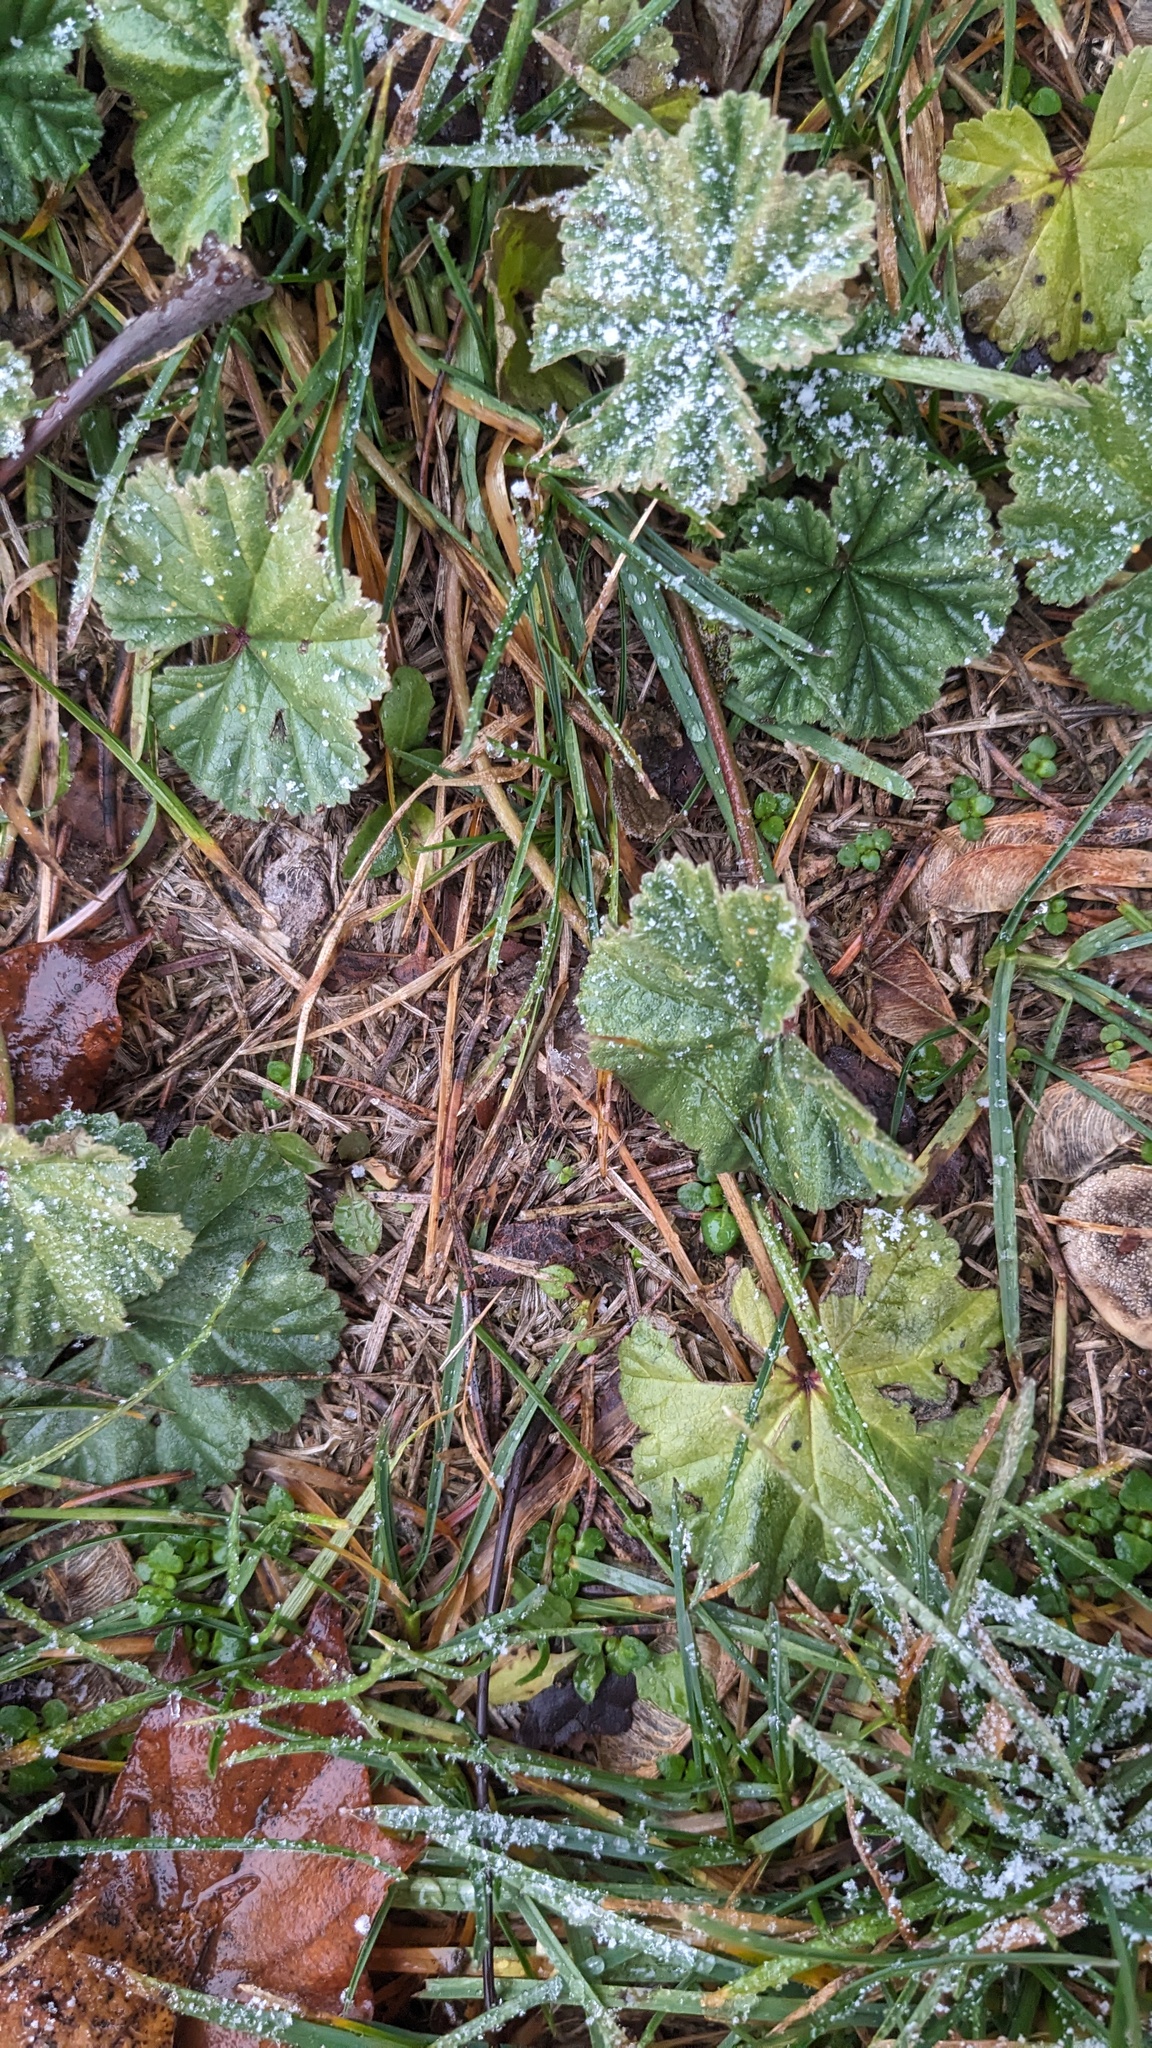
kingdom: Plantae
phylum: Tracheophyta
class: Magnoliopsida
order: Malvales
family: Malvaceae
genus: Malva
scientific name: Malva neglecta
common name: Common mallow
